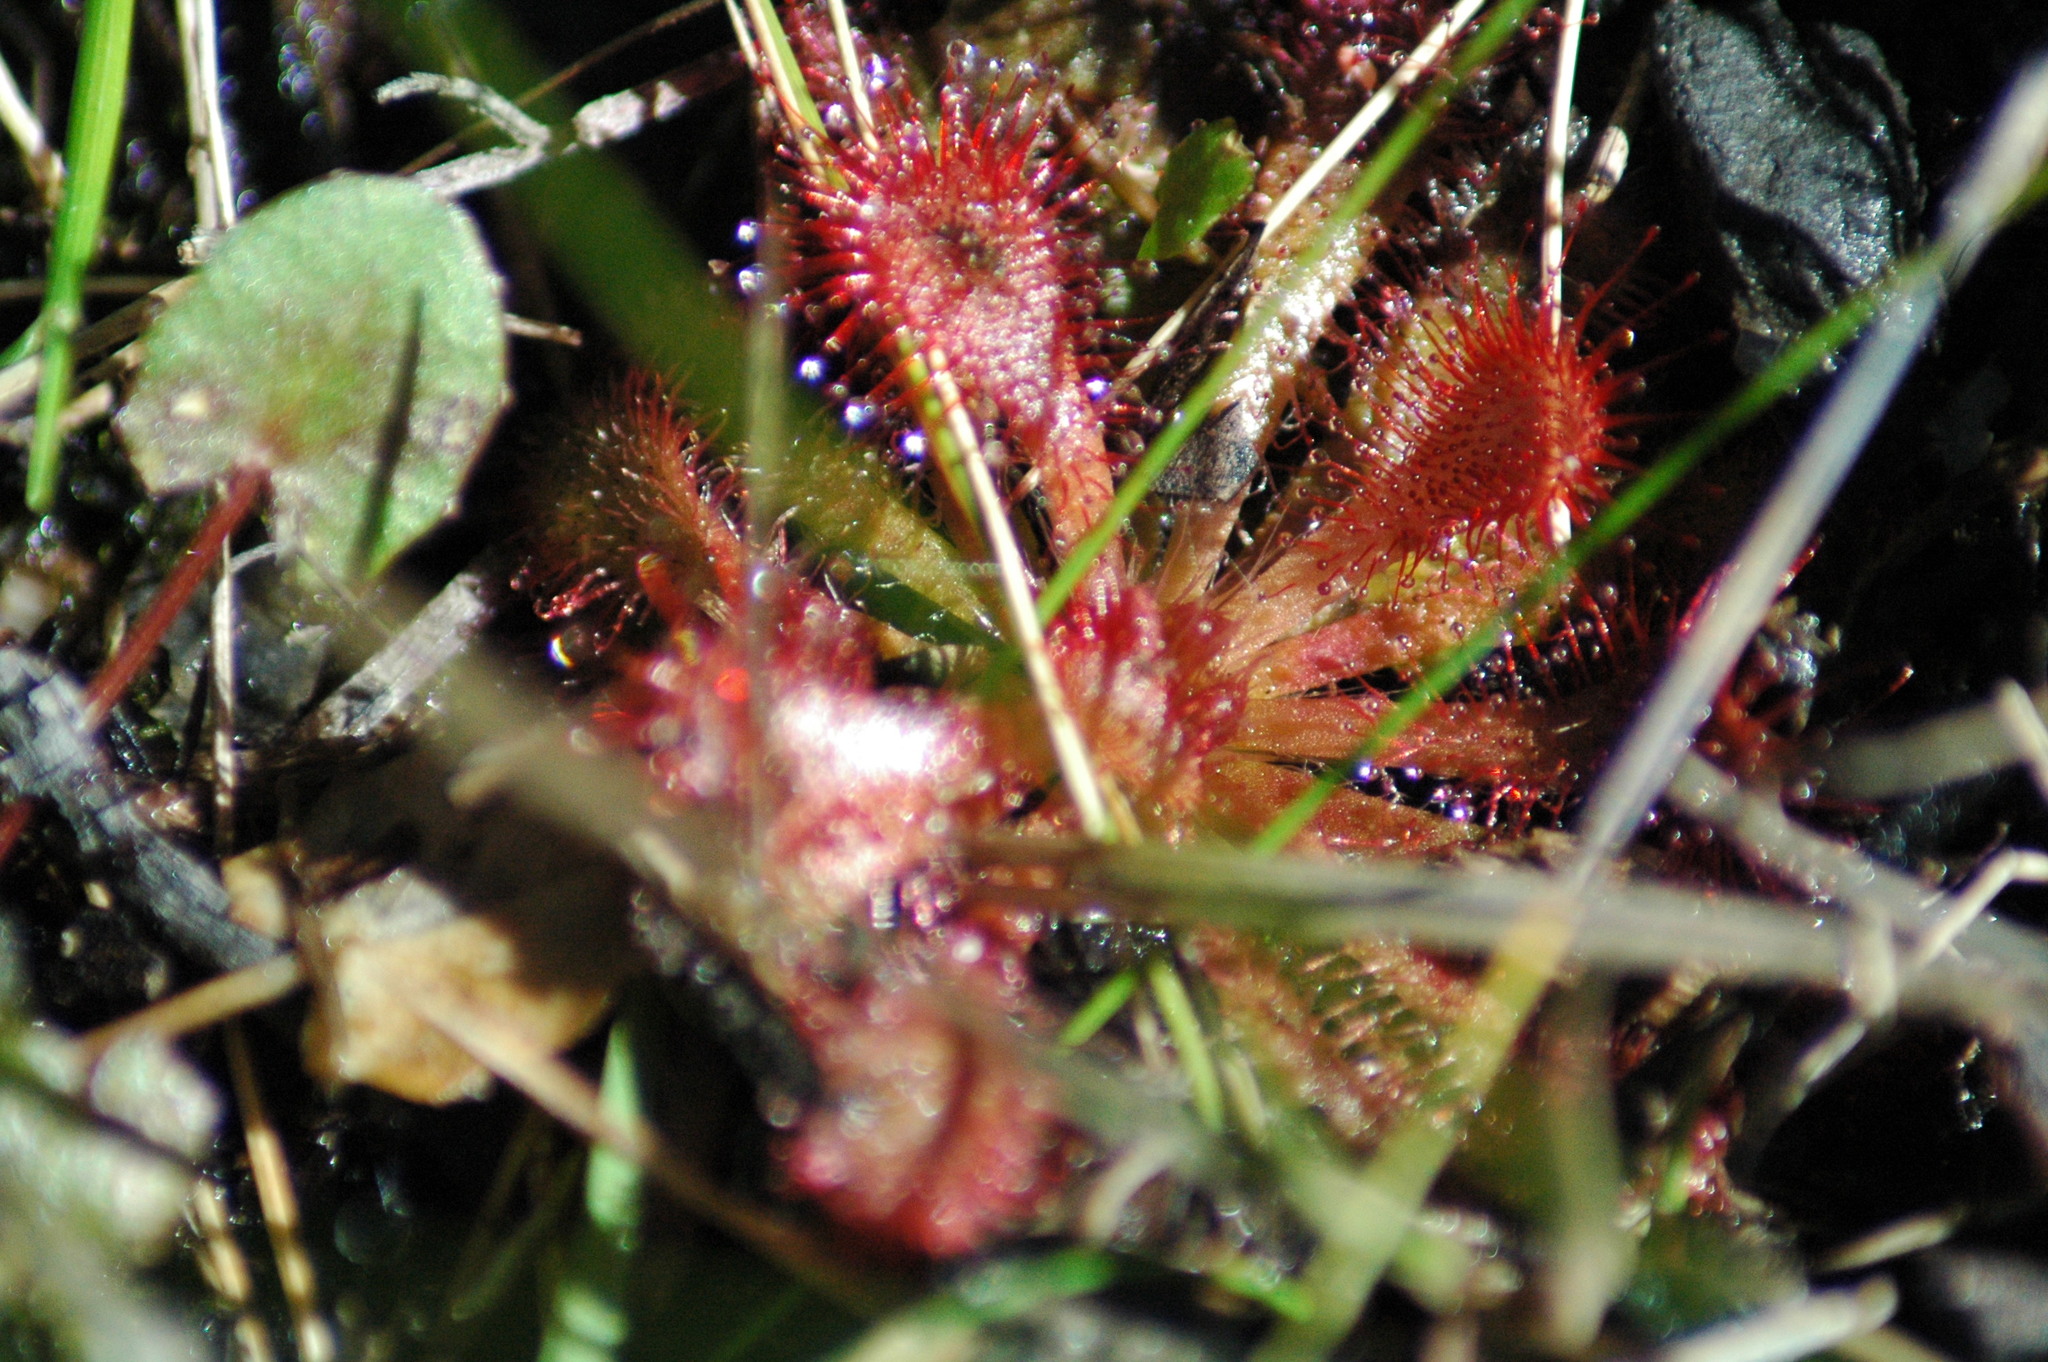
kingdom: Plantae
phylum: Tracheophyta
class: Magnoliopsida
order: Caryophyllales
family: Droseraceae
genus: Drosera
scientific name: Drosera spatulata
